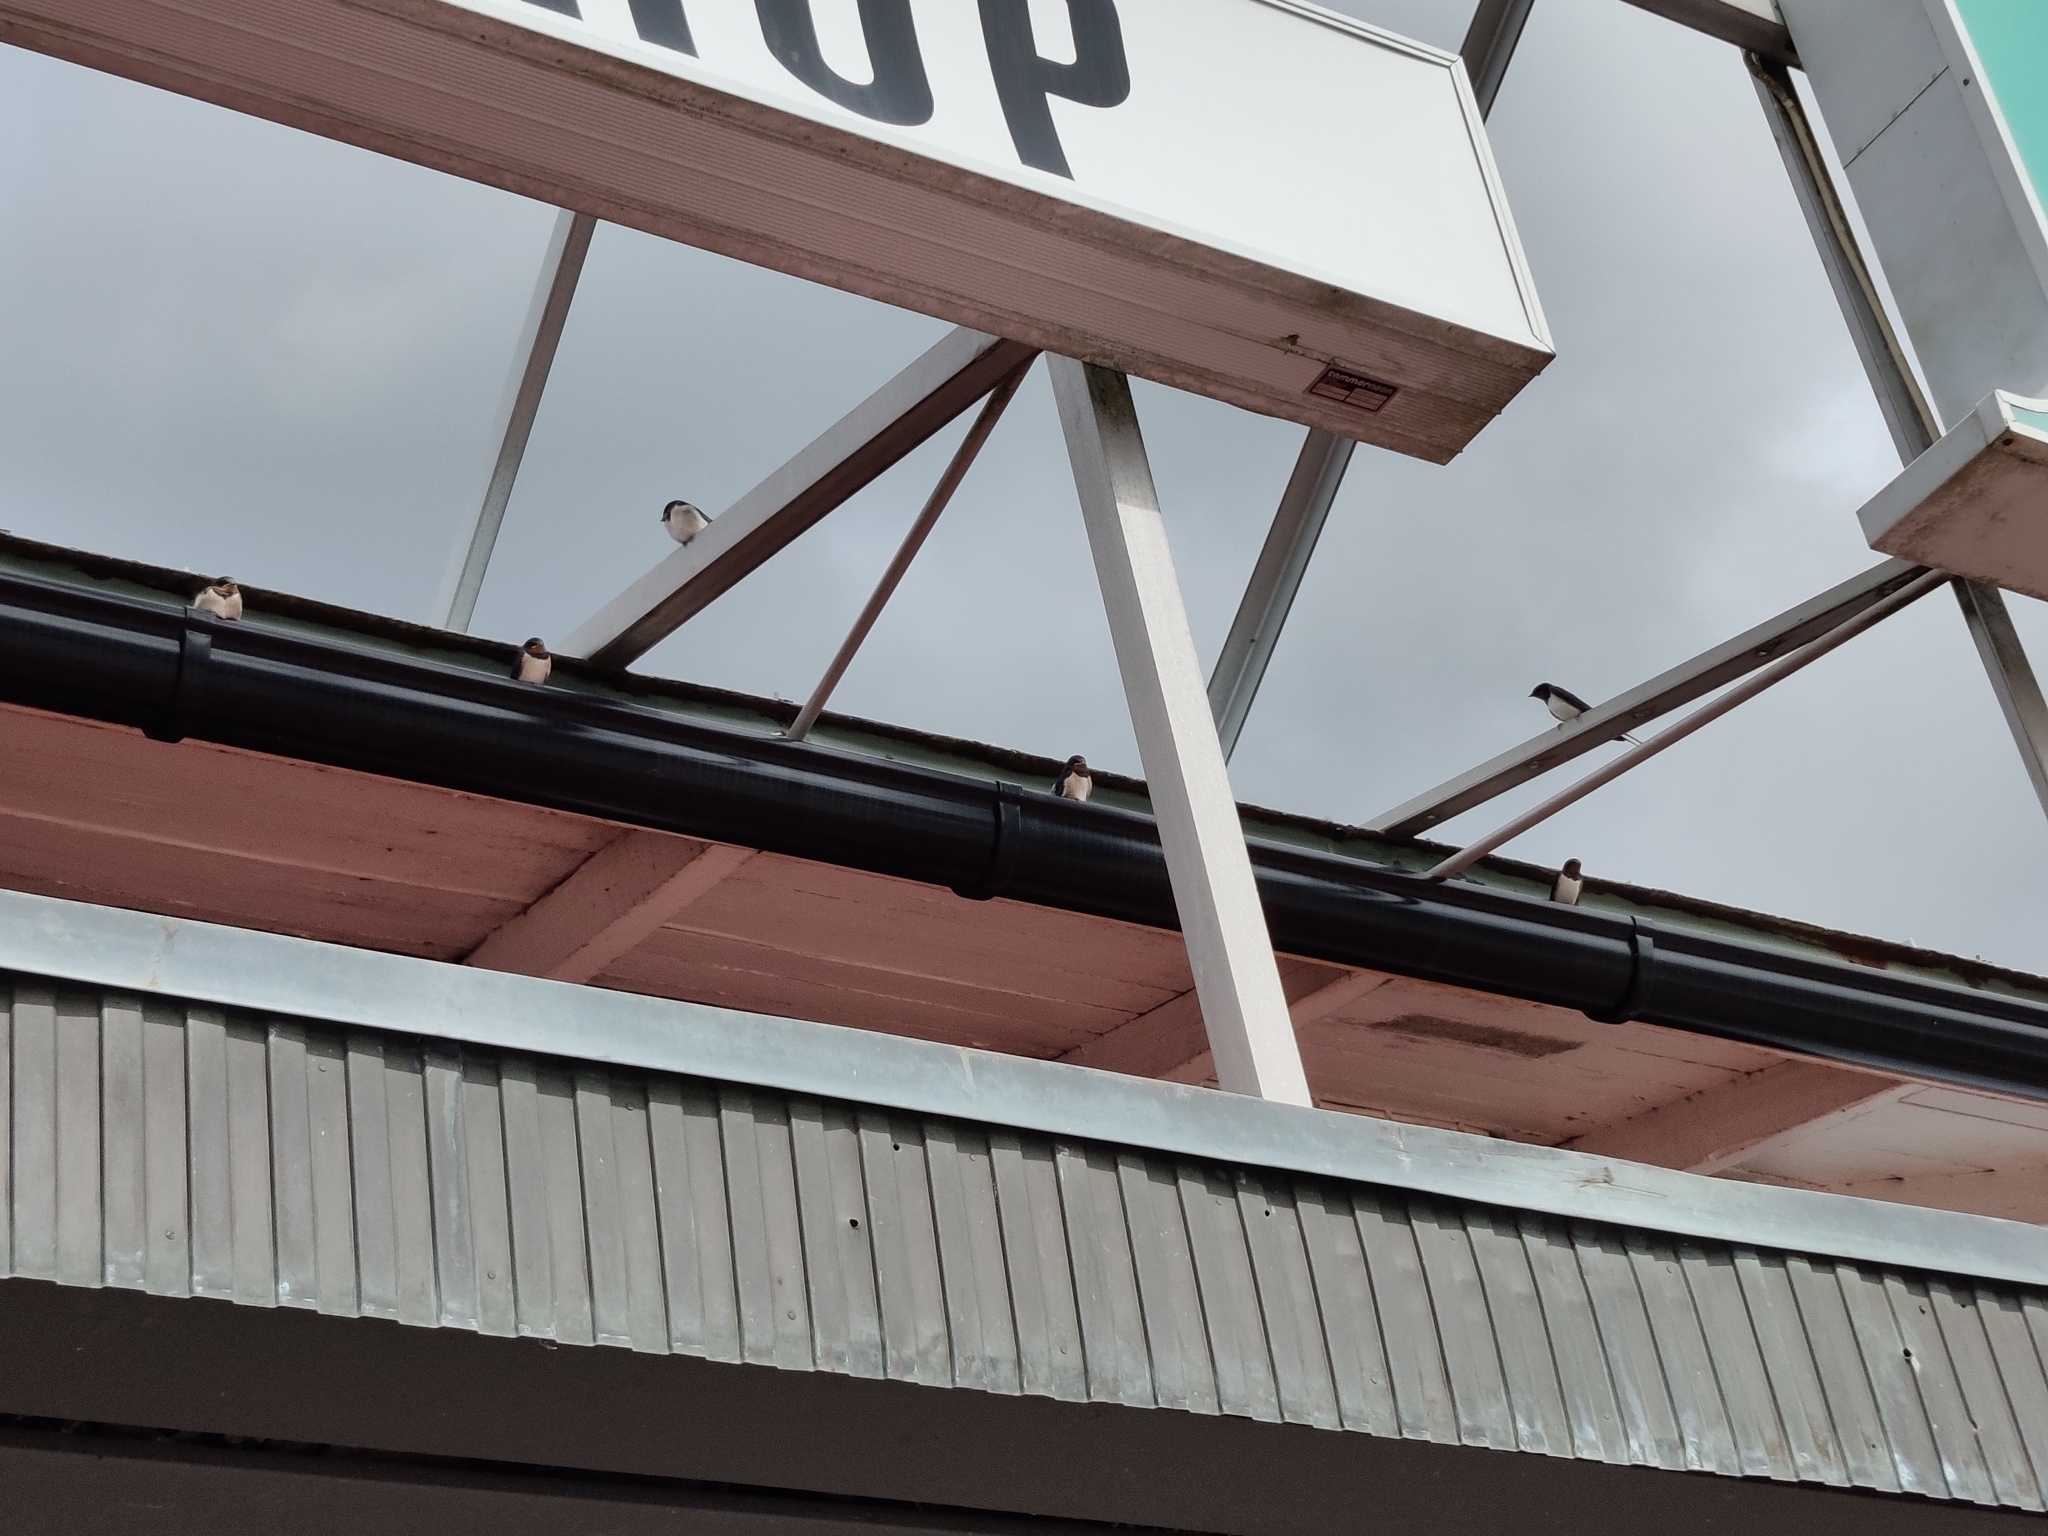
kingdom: Animalia
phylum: Chordata
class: Aves
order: Passeriformes
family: Hirundinidae
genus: Hirundo
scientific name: Hirundo rustica
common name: Barn swallow
